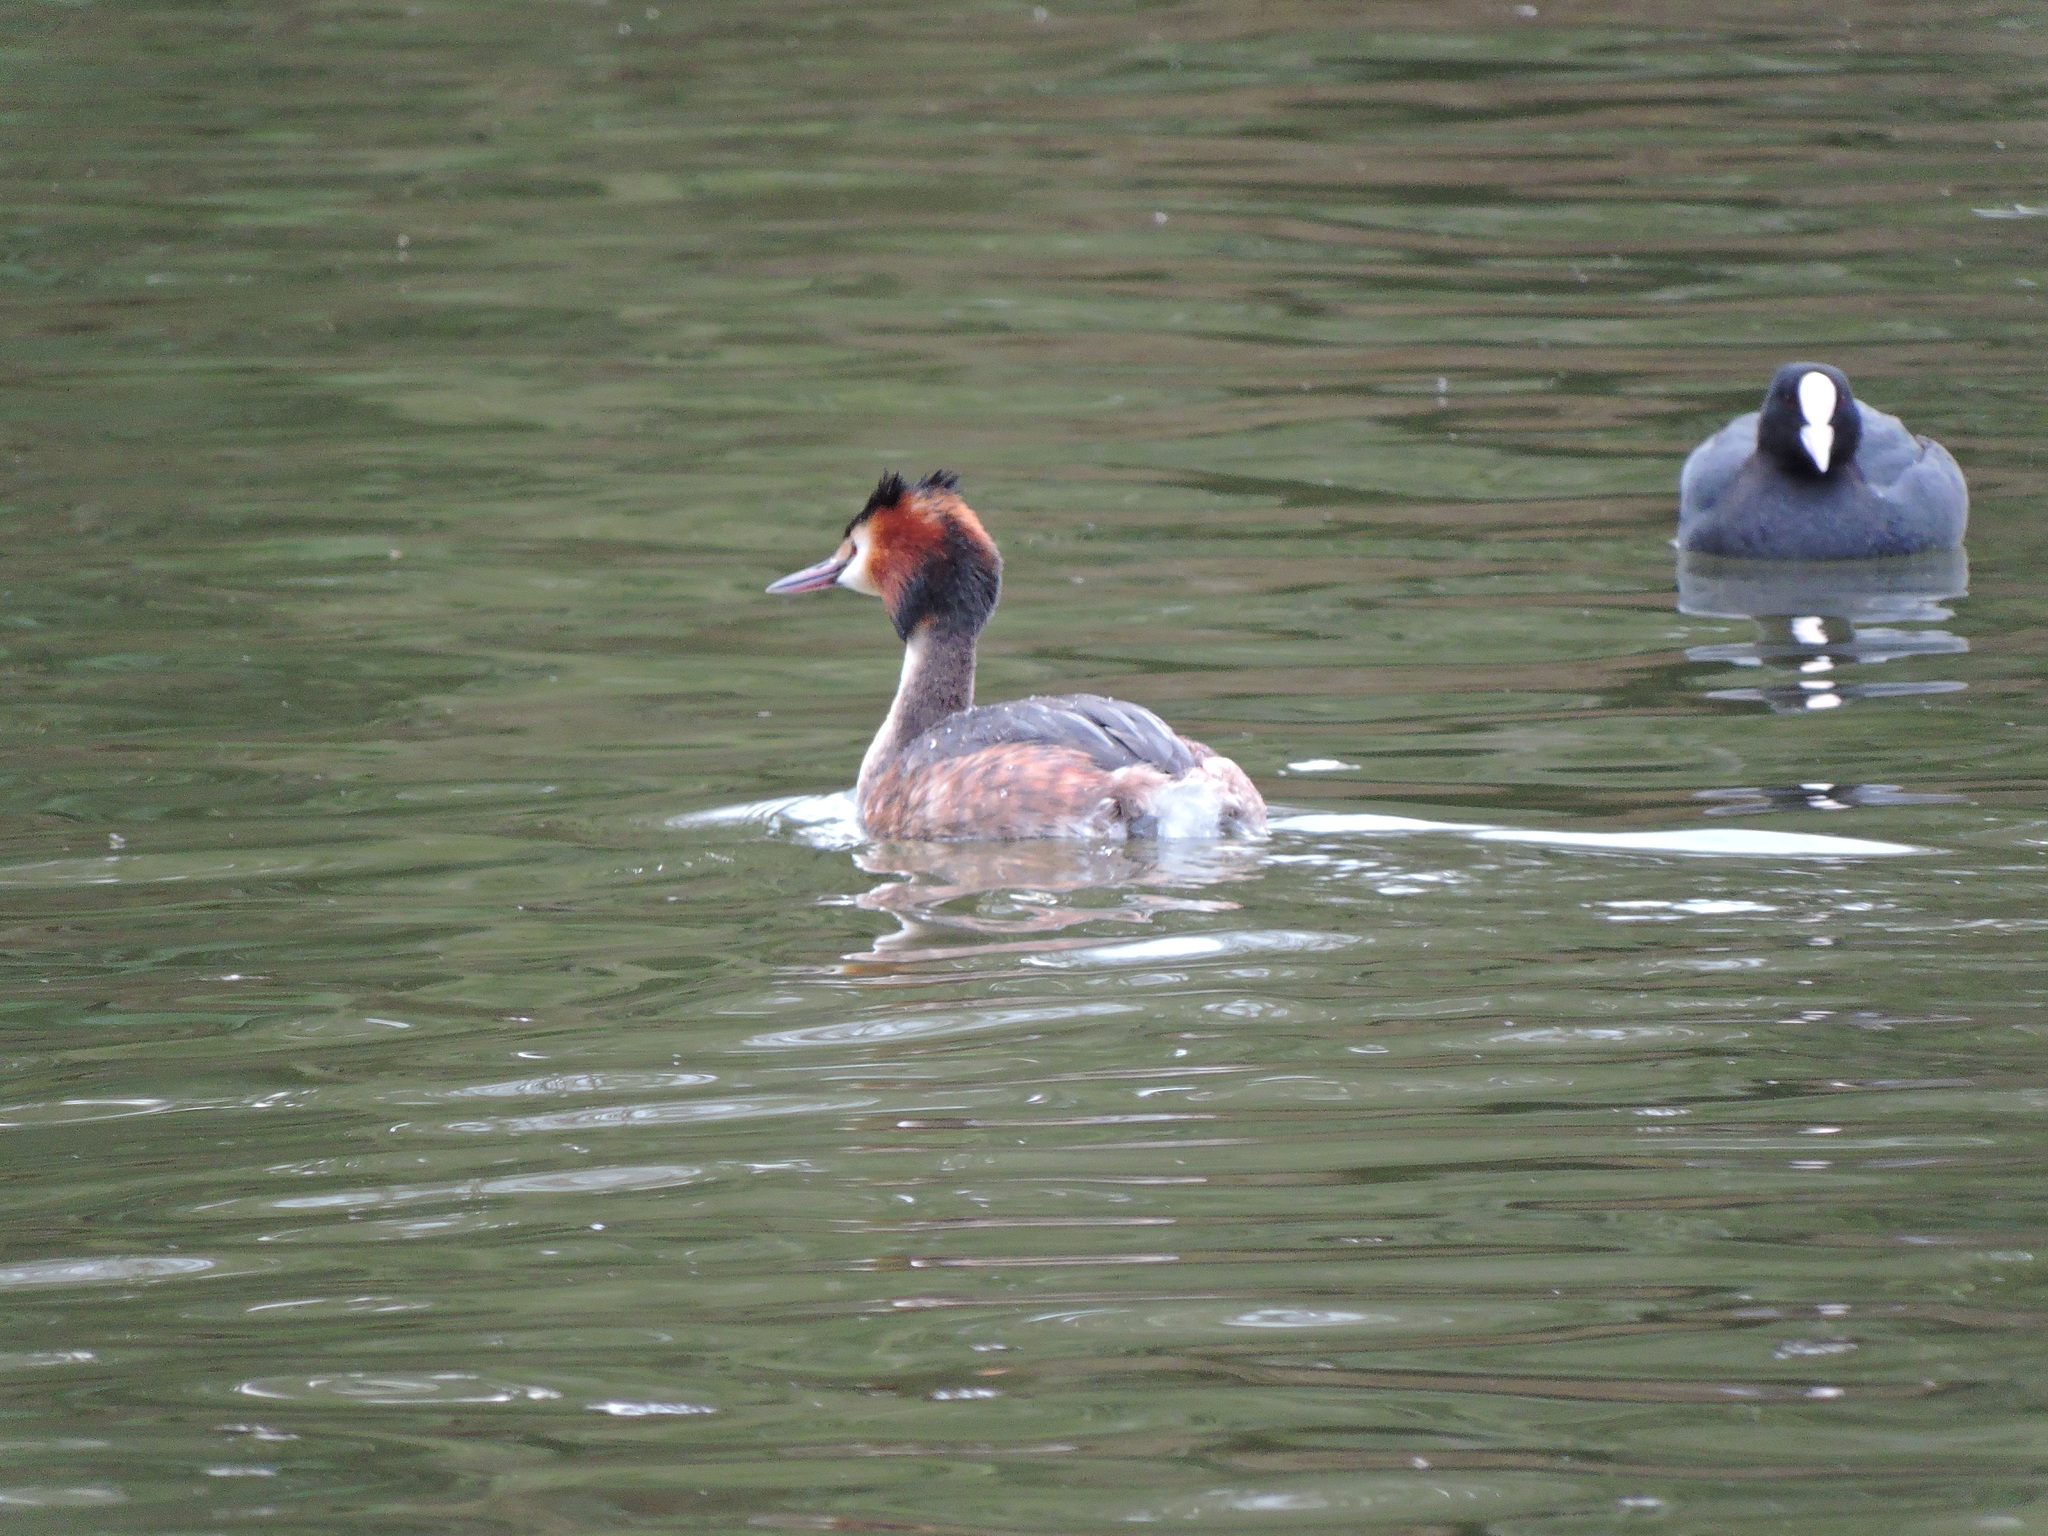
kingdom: Animalia
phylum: Chordata
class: Aves
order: Gruiformes
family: Rallidae
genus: Fulica
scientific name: Fulica atra
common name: Eurasian coot
